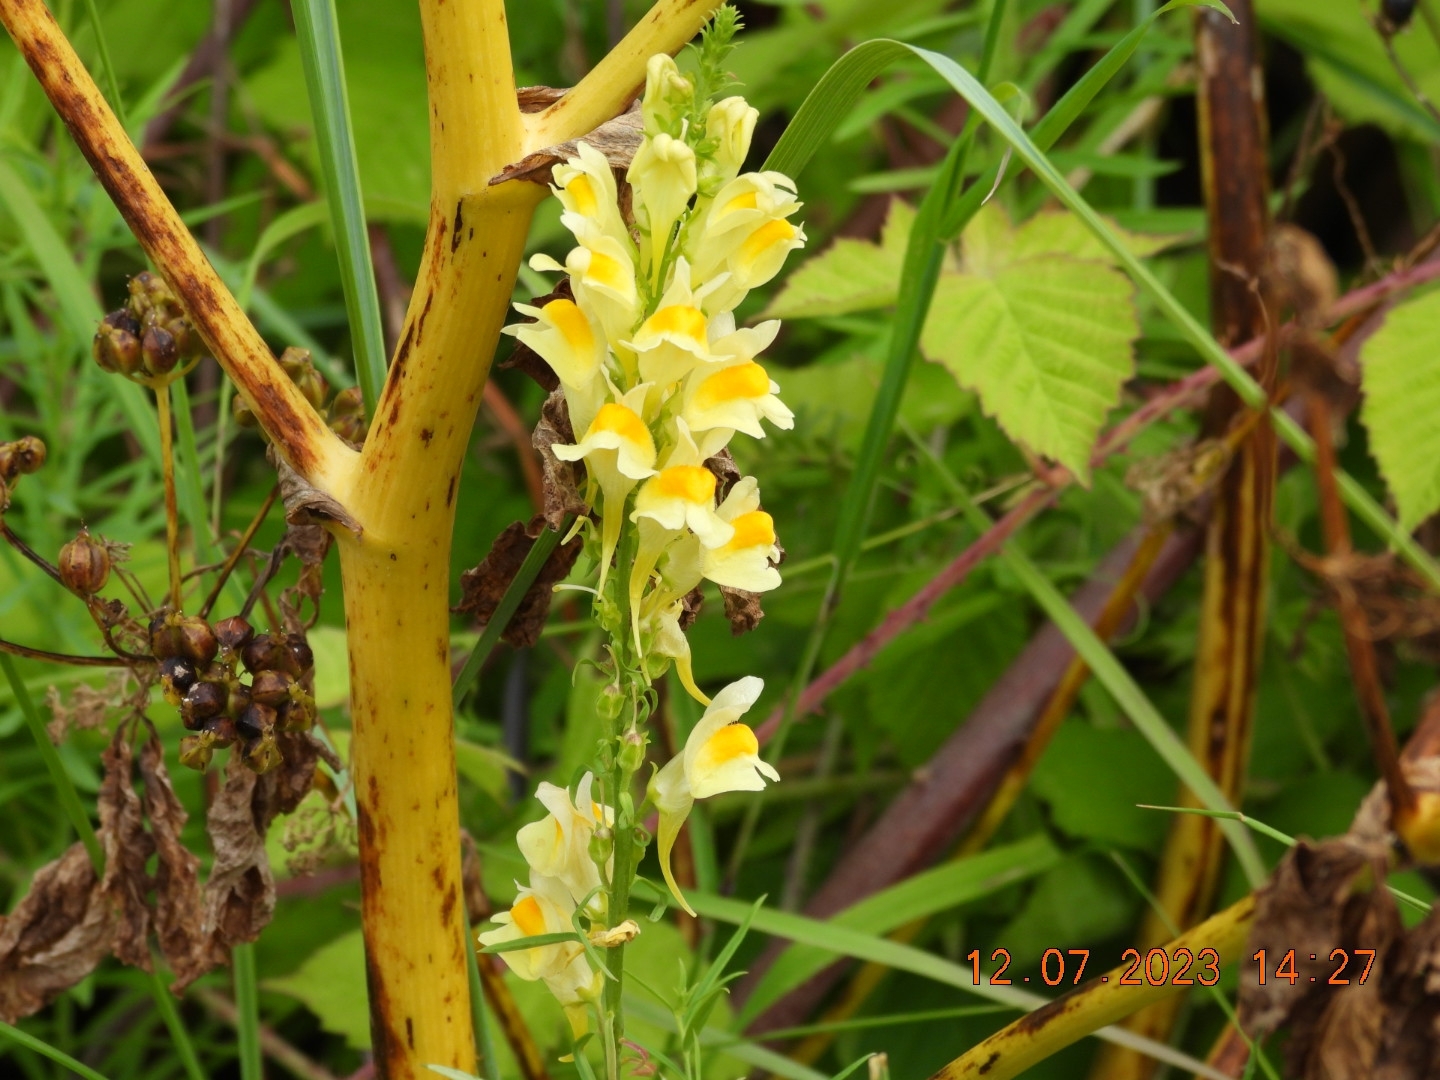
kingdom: Plantae
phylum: Tracheophyta
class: Magnoliopsida
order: Lamiales
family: Plantaginaceae
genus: Linaria
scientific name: Linaria vulgaris
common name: Butter and eggs
